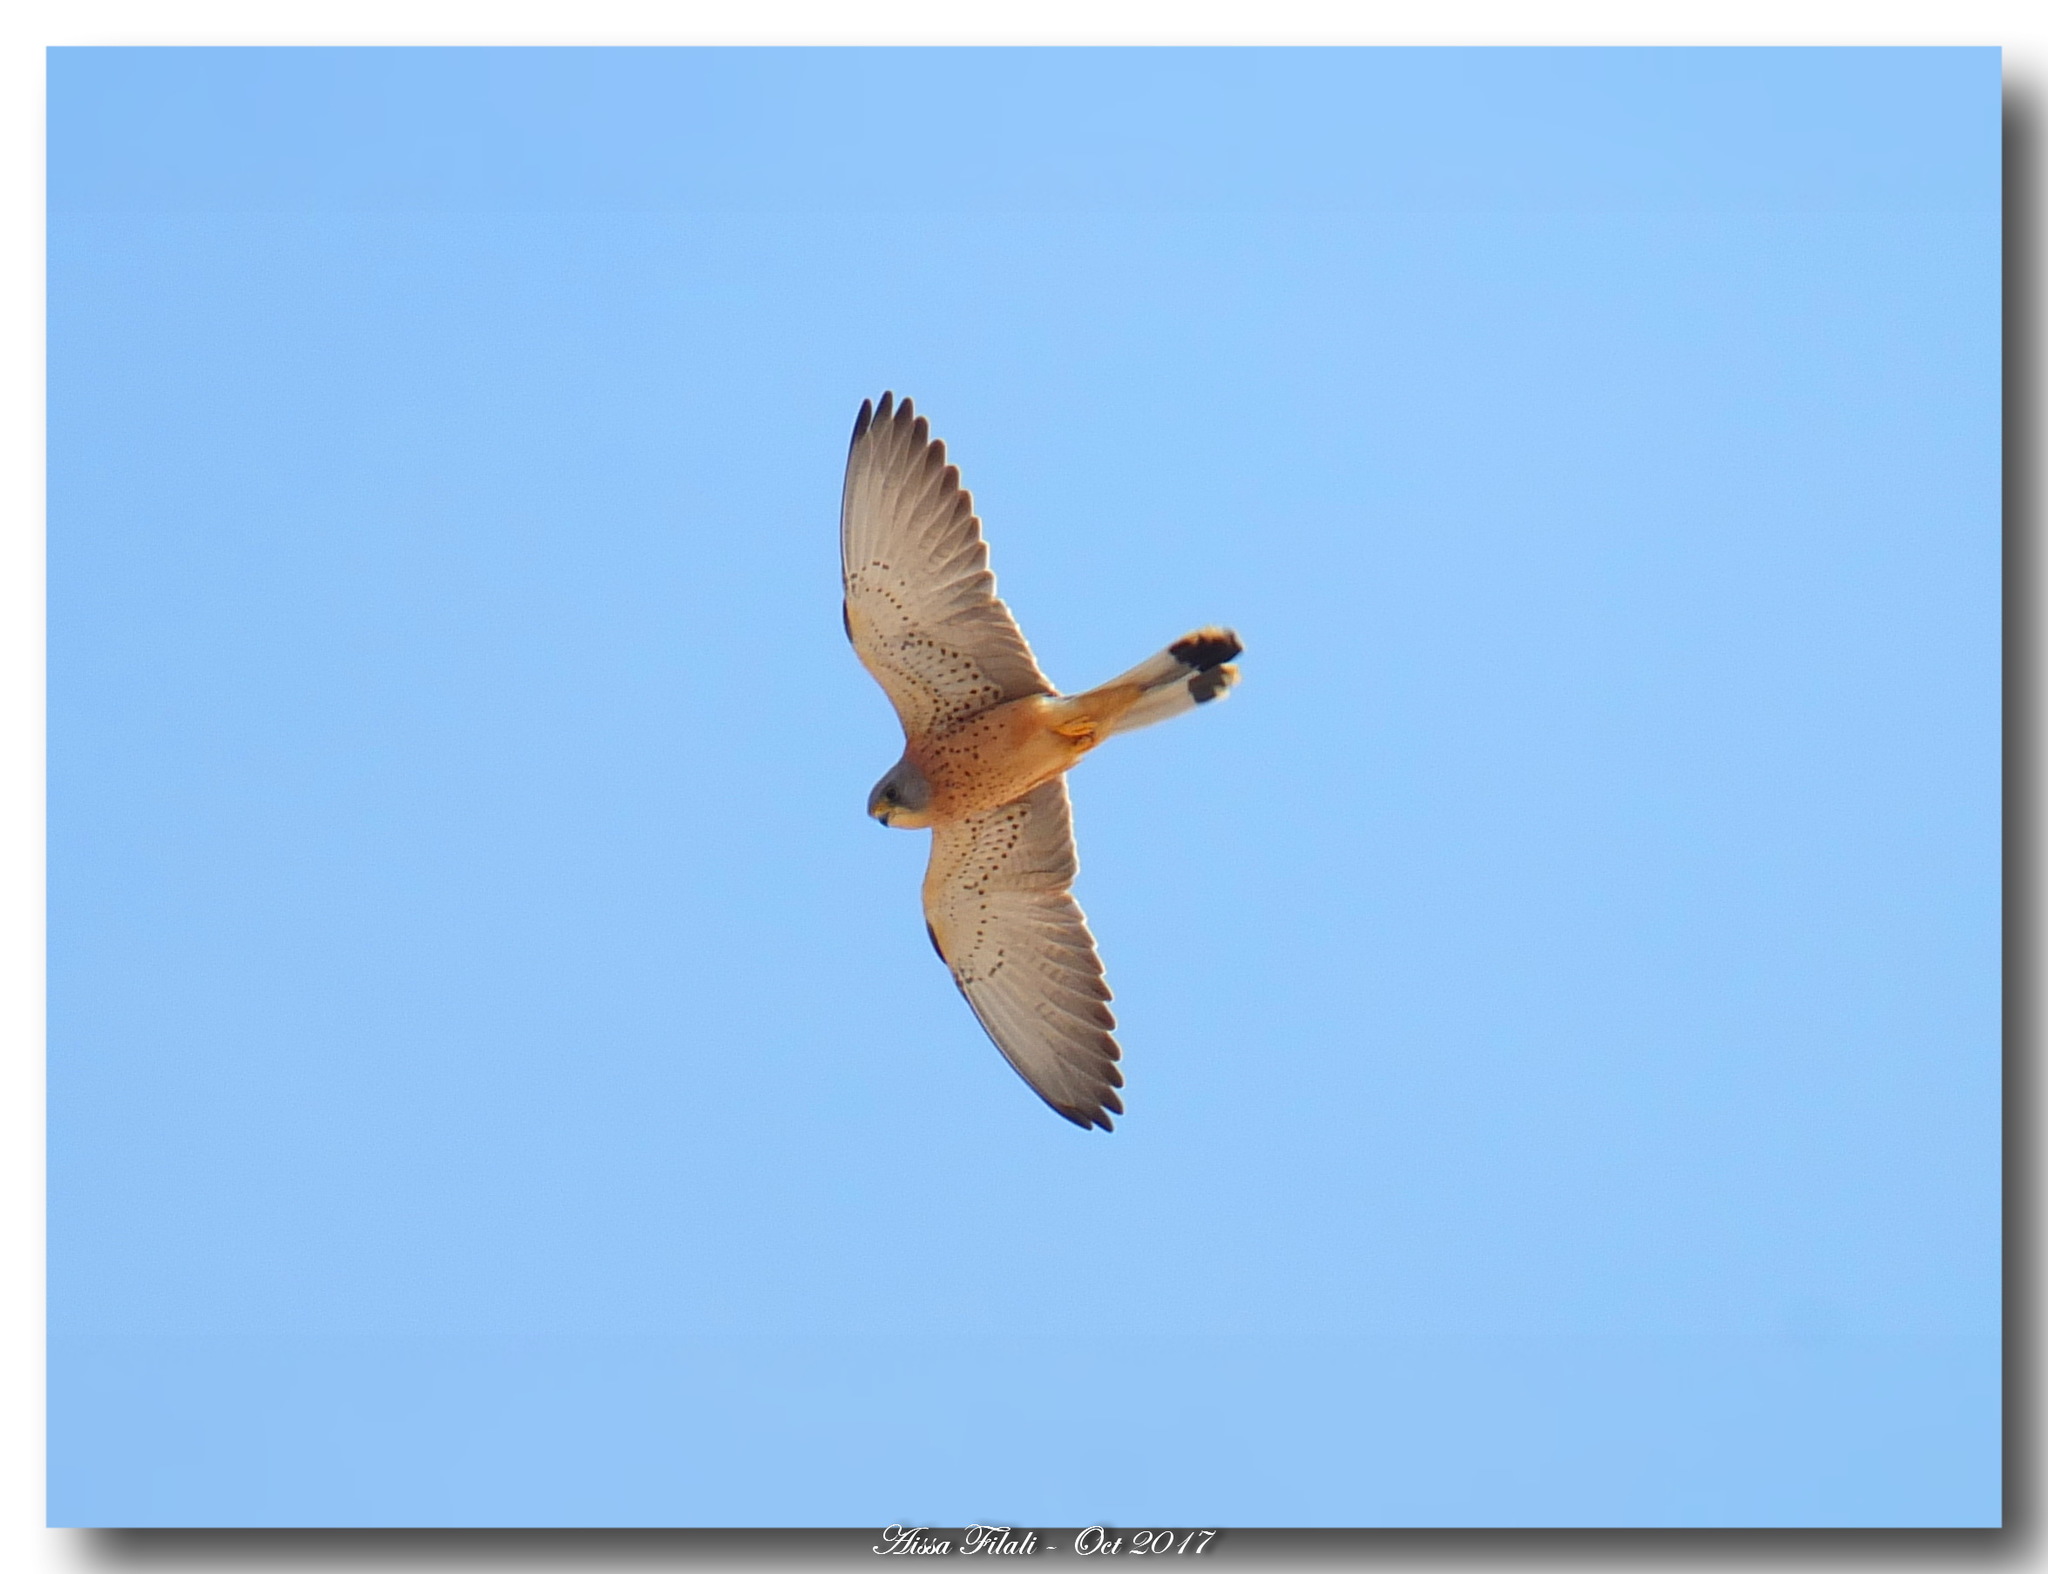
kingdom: Animalia
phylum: Chordata
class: Aves
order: Falconiformes
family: Falconidae
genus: Falco
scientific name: Falco naumanni
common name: Lesser kestrel
